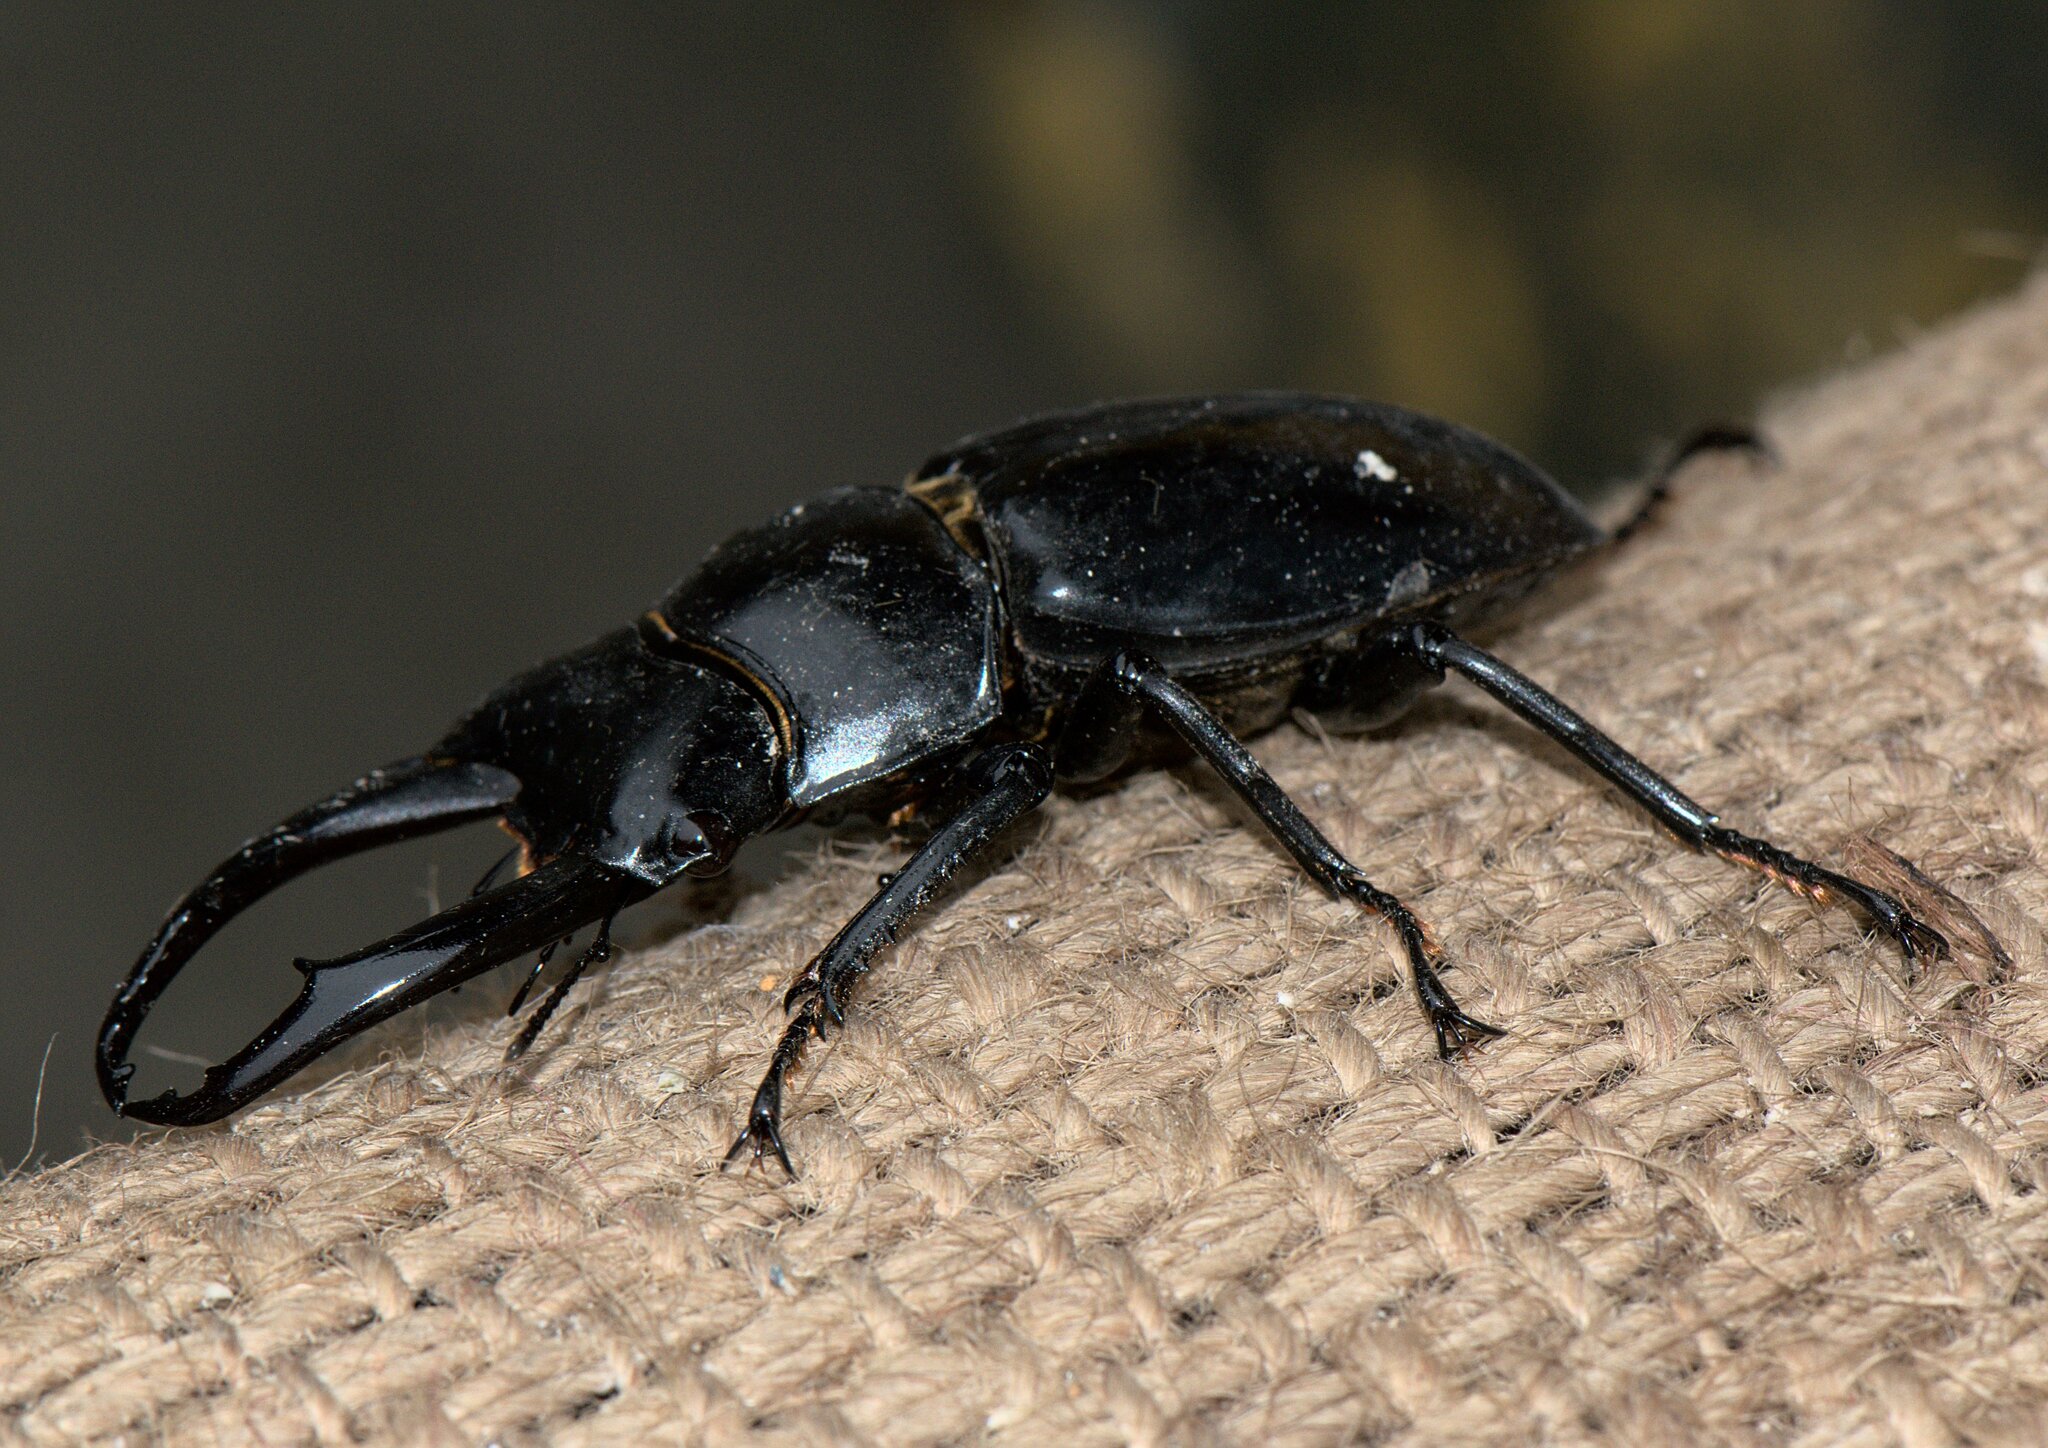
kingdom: Animalia
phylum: Arthropoda
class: Insecta
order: Coleoptera
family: Lucanidae
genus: Dorcus
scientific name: Dorcus nepalensis
